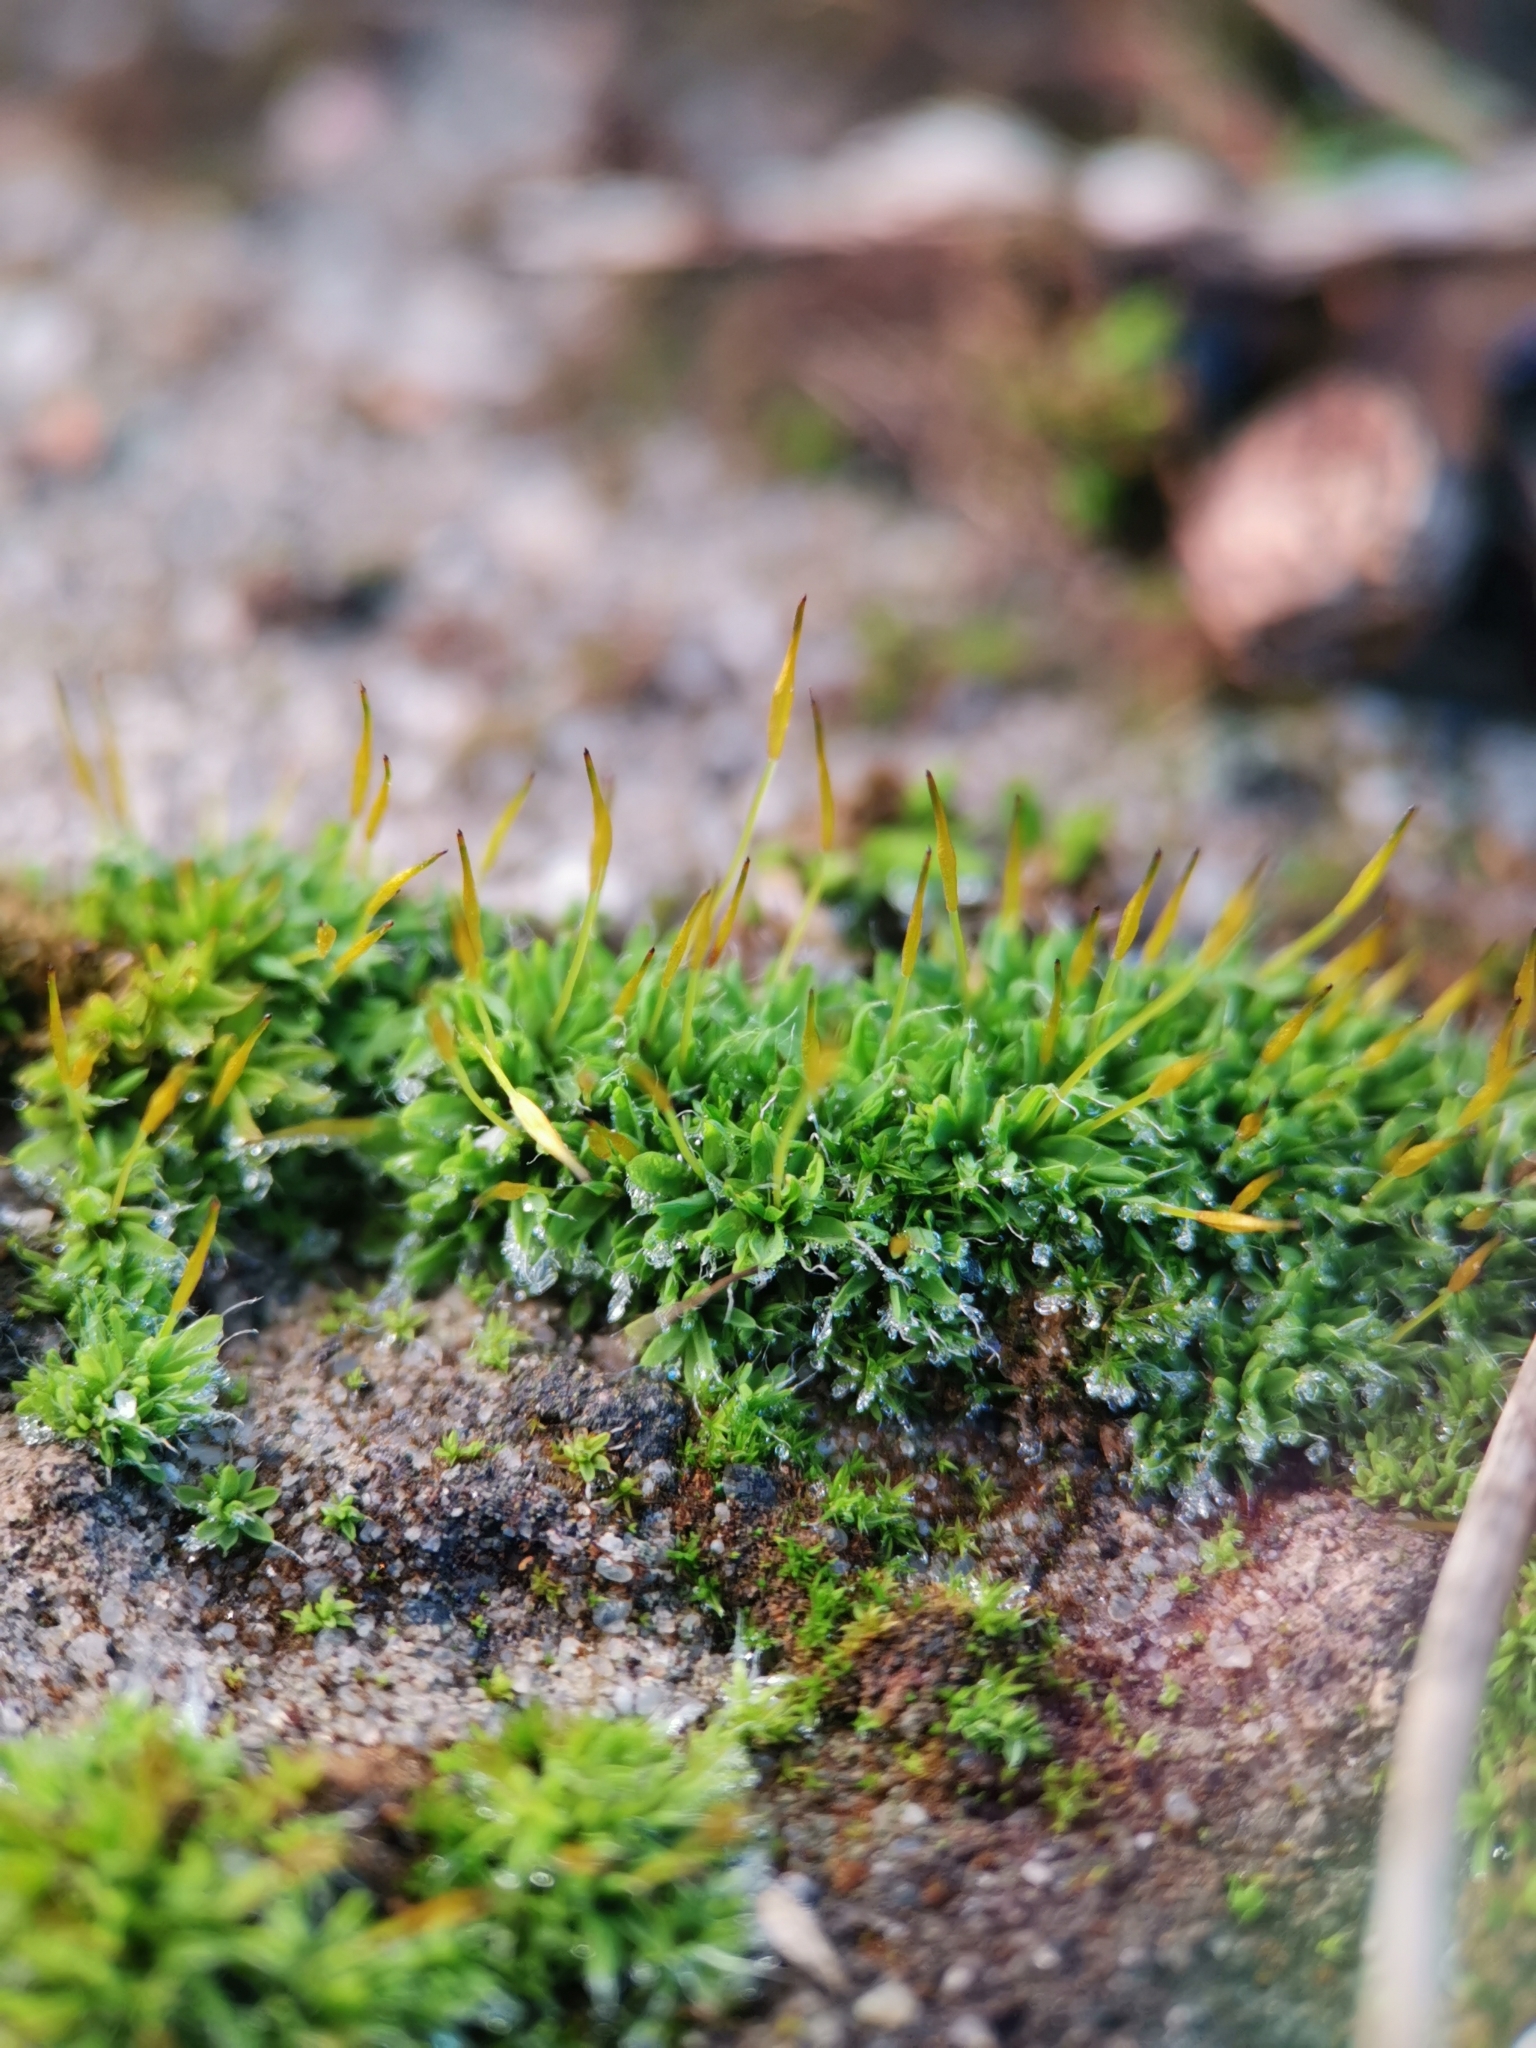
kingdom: Plantae
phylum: Bryophyta
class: Bryopsida
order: Pottiales
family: Pottiaceae
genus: Tortula
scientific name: Tortula muralis
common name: Wall screw-moss
